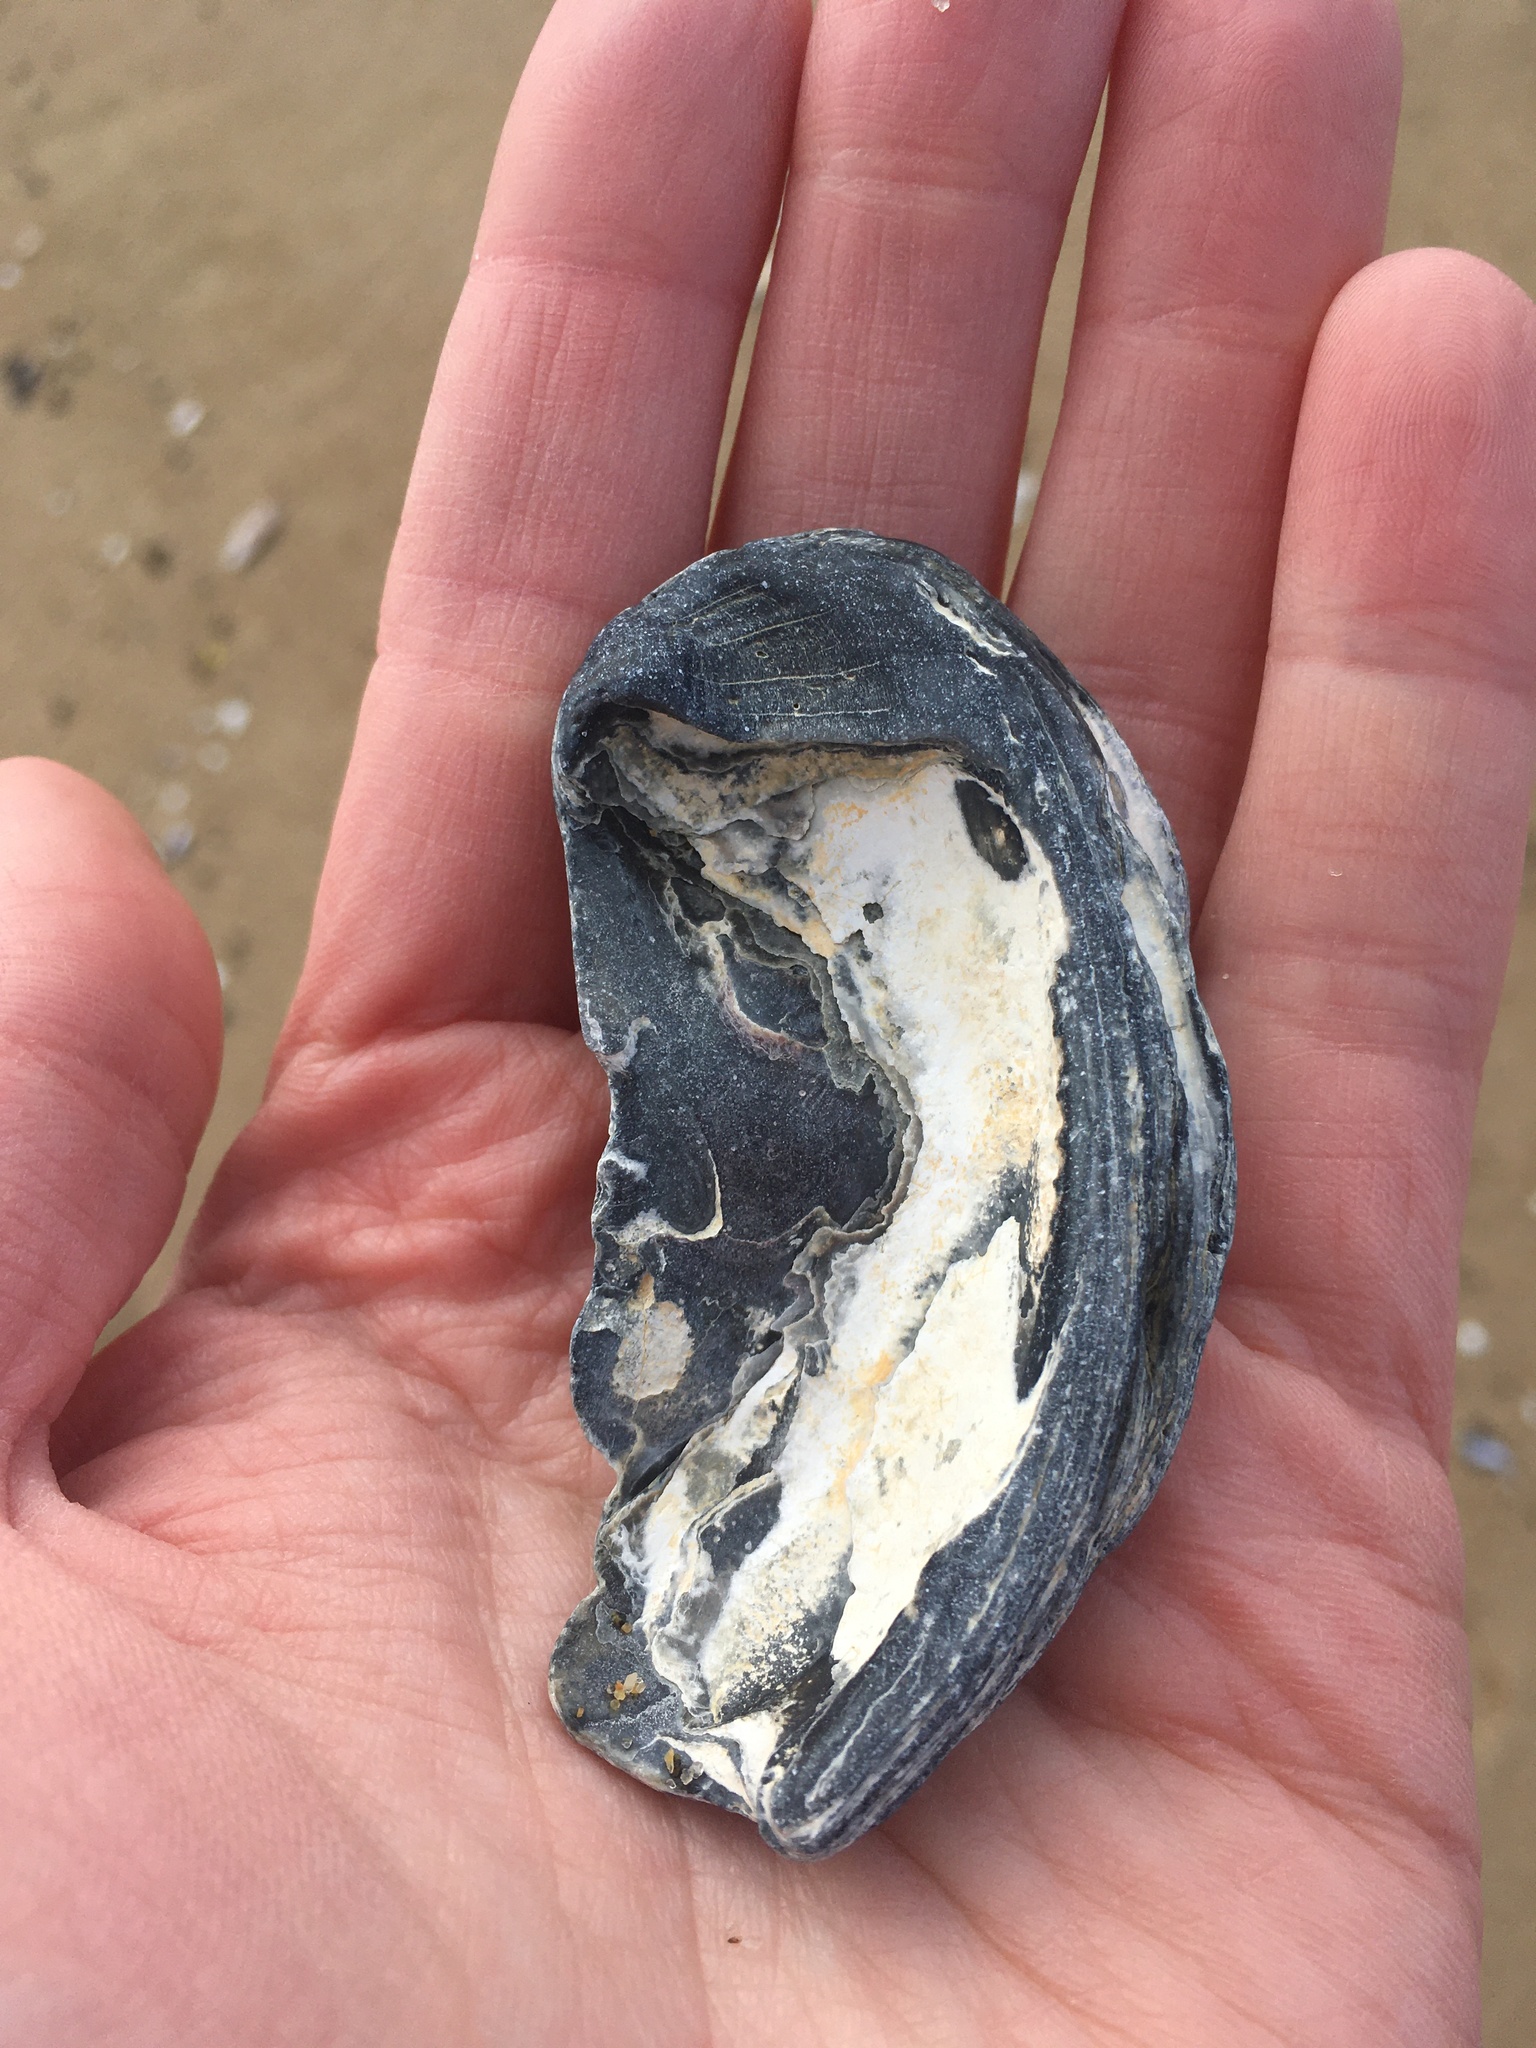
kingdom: Animalia
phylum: Mollusca
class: Bivalvia
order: Ostreida
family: Ostreidae
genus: Crassostrea
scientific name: Crassostrea virginica
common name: American oyster
